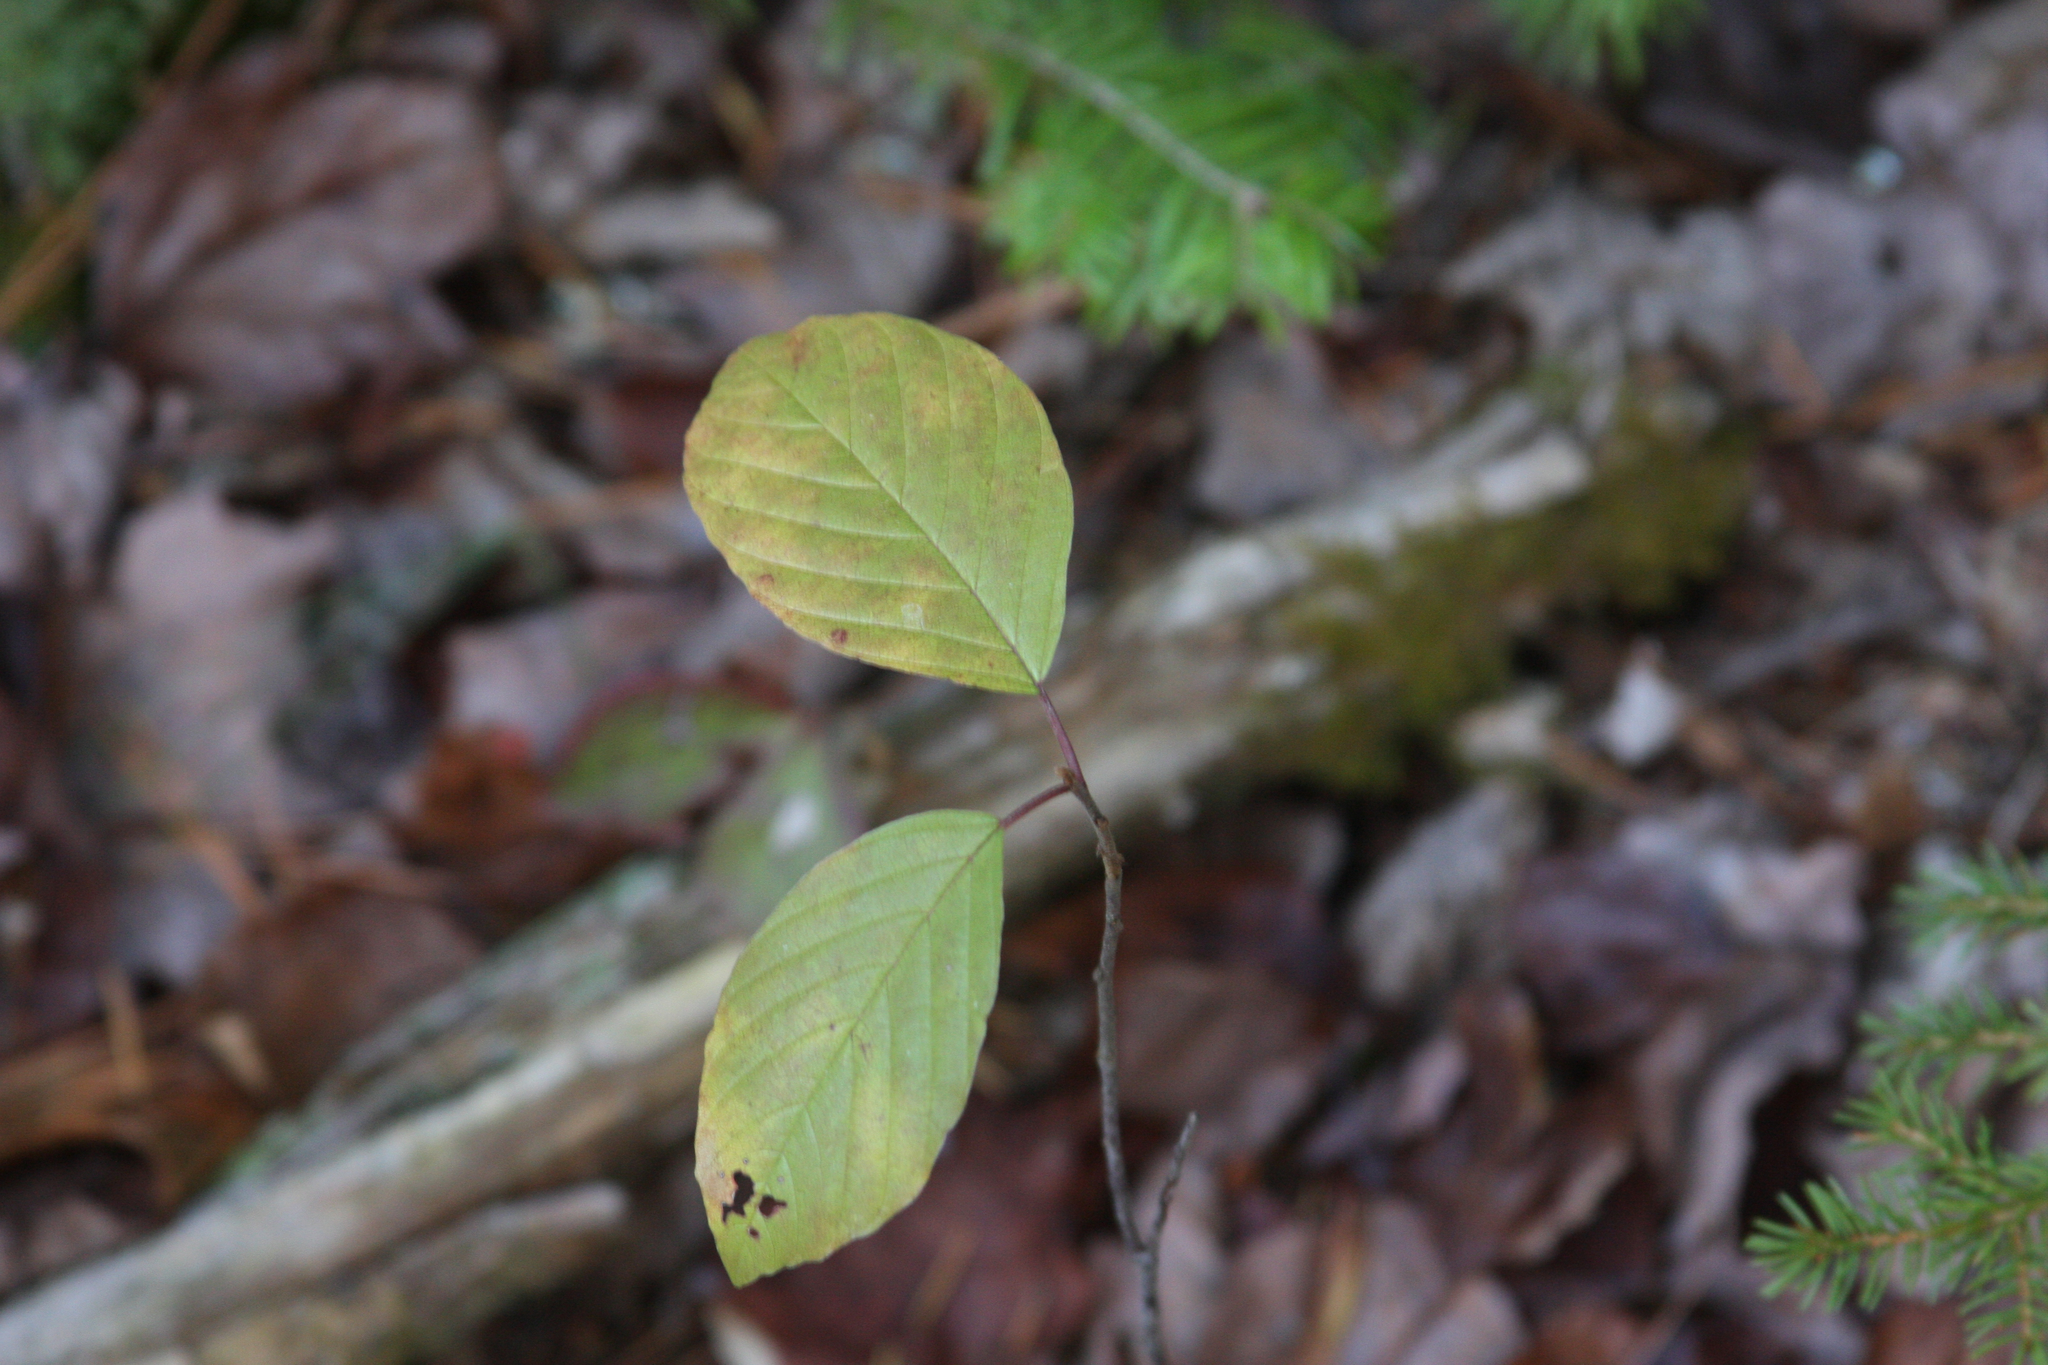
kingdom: Plantae
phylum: Tracheophyta
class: Magnoliopsida
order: Rosales
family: Rhamnaceae
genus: Frangula
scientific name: Frangula alnus
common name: Alder buckthorn
